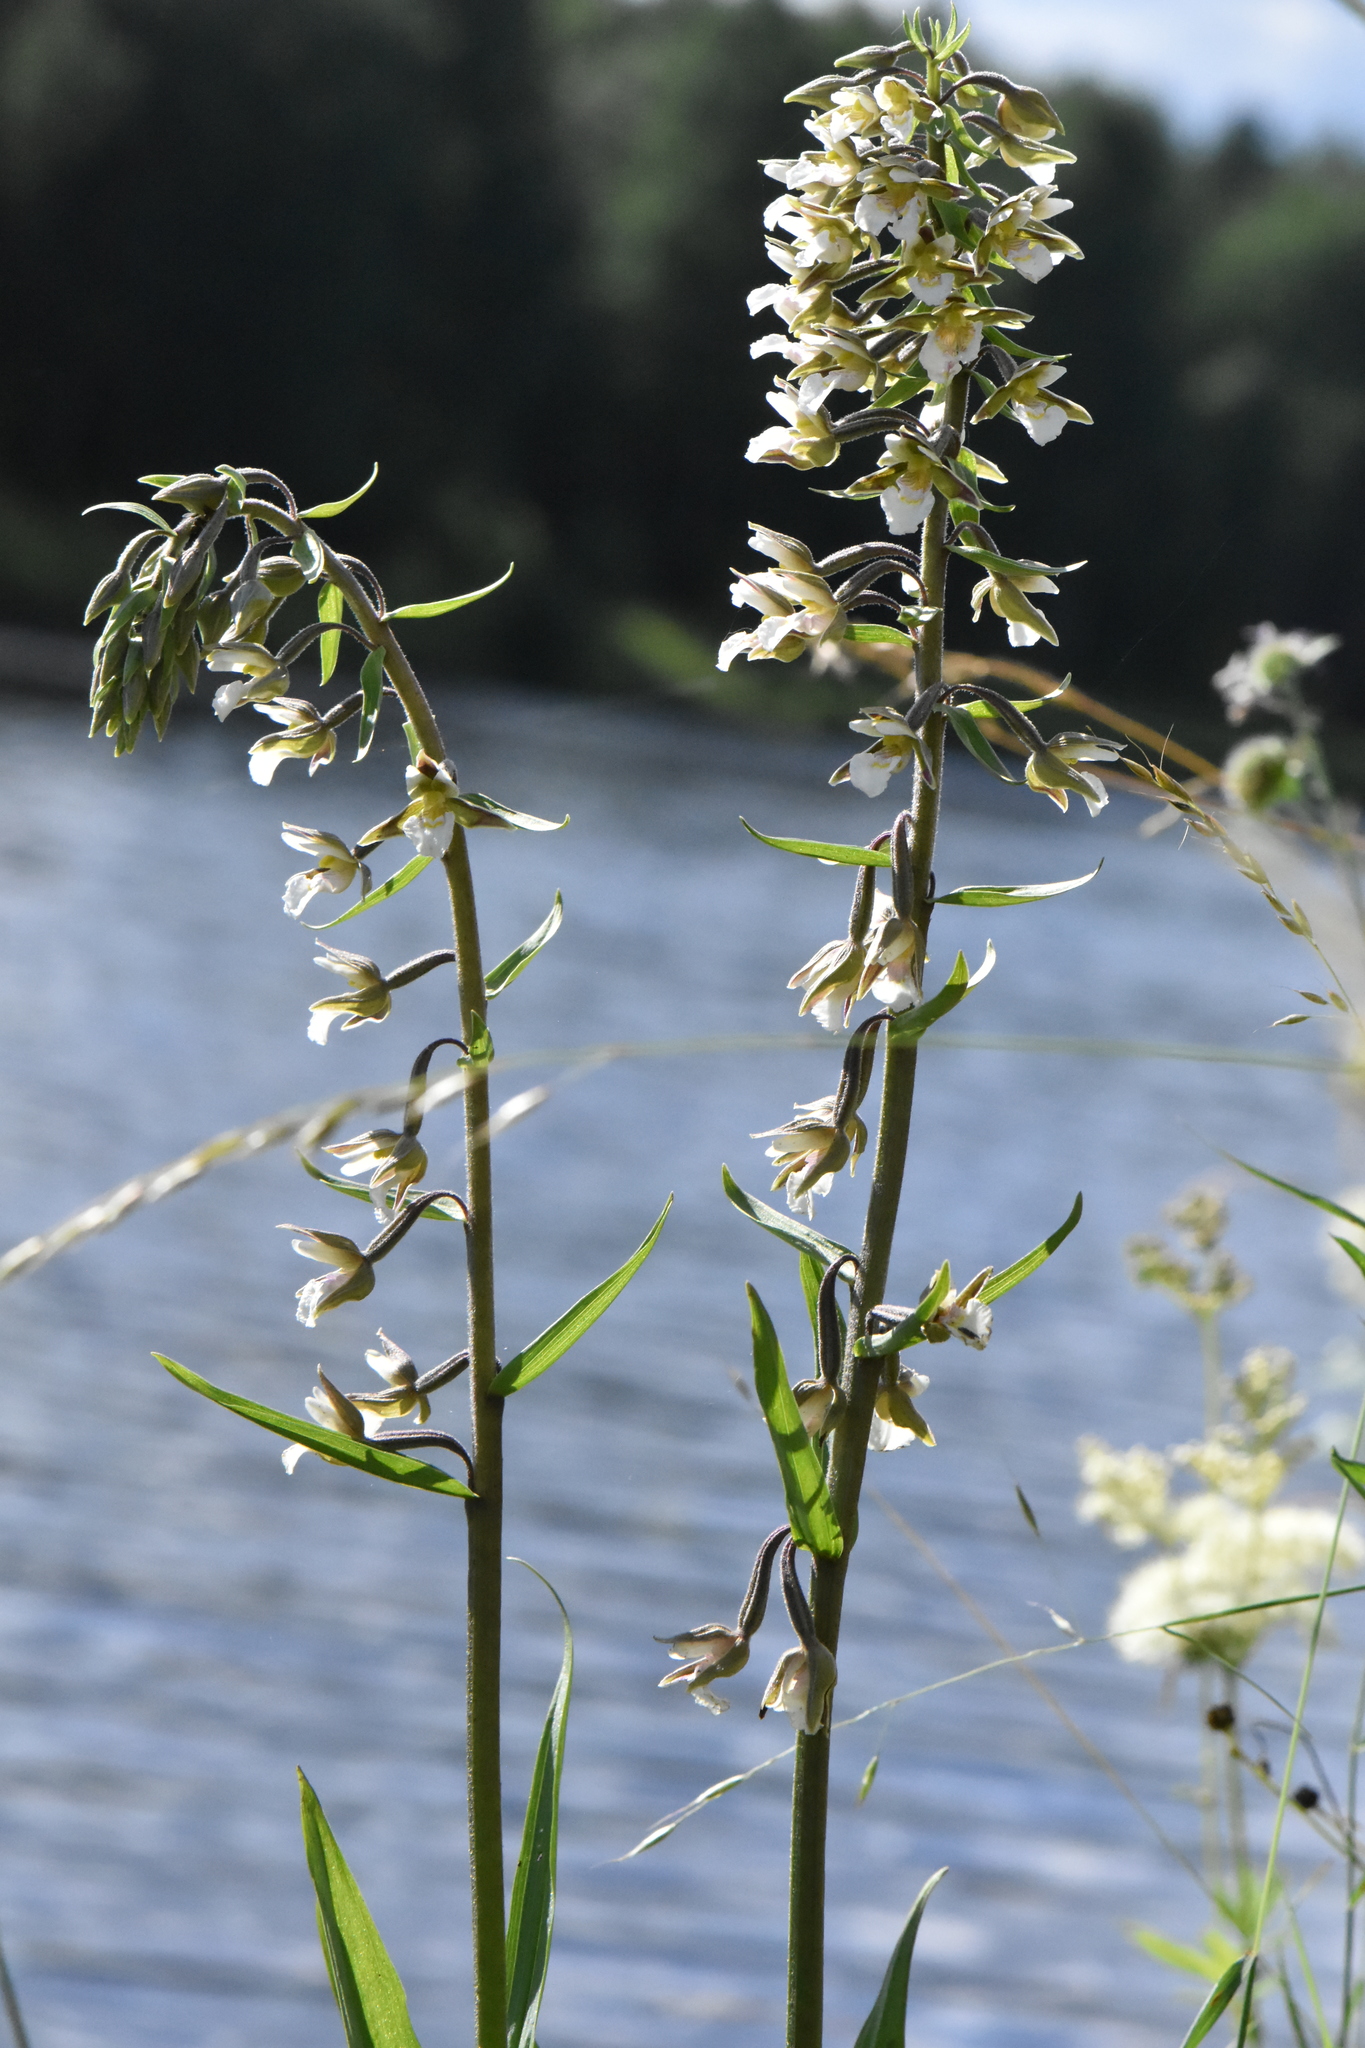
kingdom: Plantae
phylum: Tracheophyta
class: Liliopsida
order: Asparagales
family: Orchidaceae
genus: Epipactis
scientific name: Epipactis palustris
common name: Marsh helleborine
